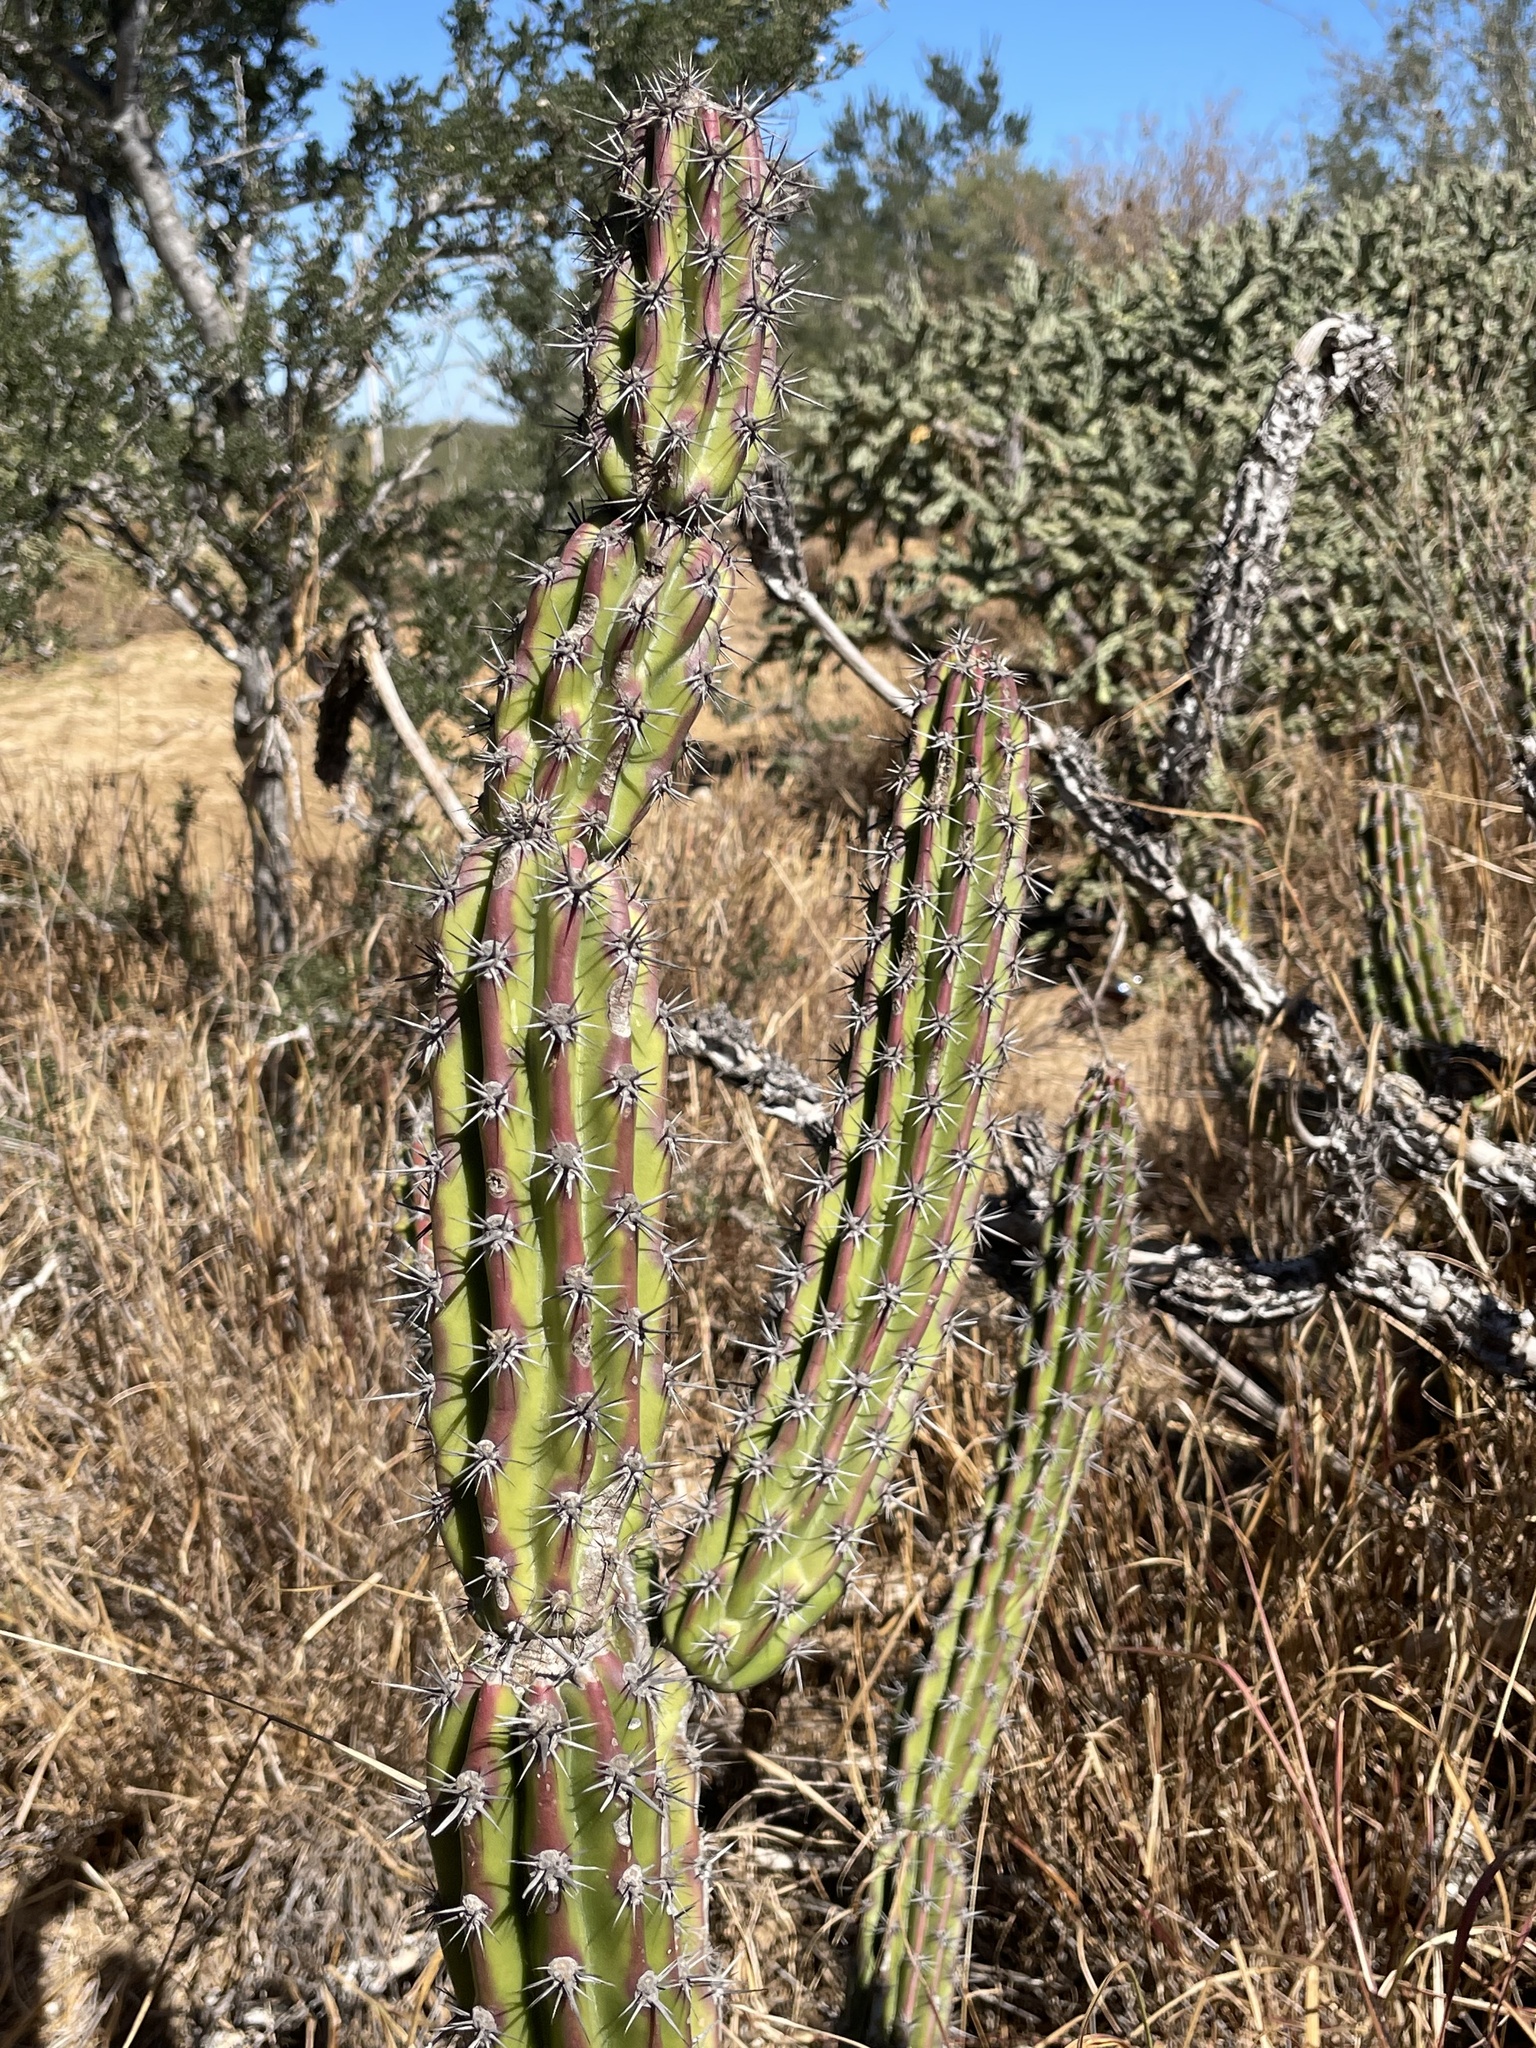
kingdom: Plantae
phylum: Tracheophyta
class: Magnoliopsida
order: Caryophyllales
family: Cactaceae
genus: Stenocereus
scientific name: Stenocereus gummosus
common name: Dagger cactus
